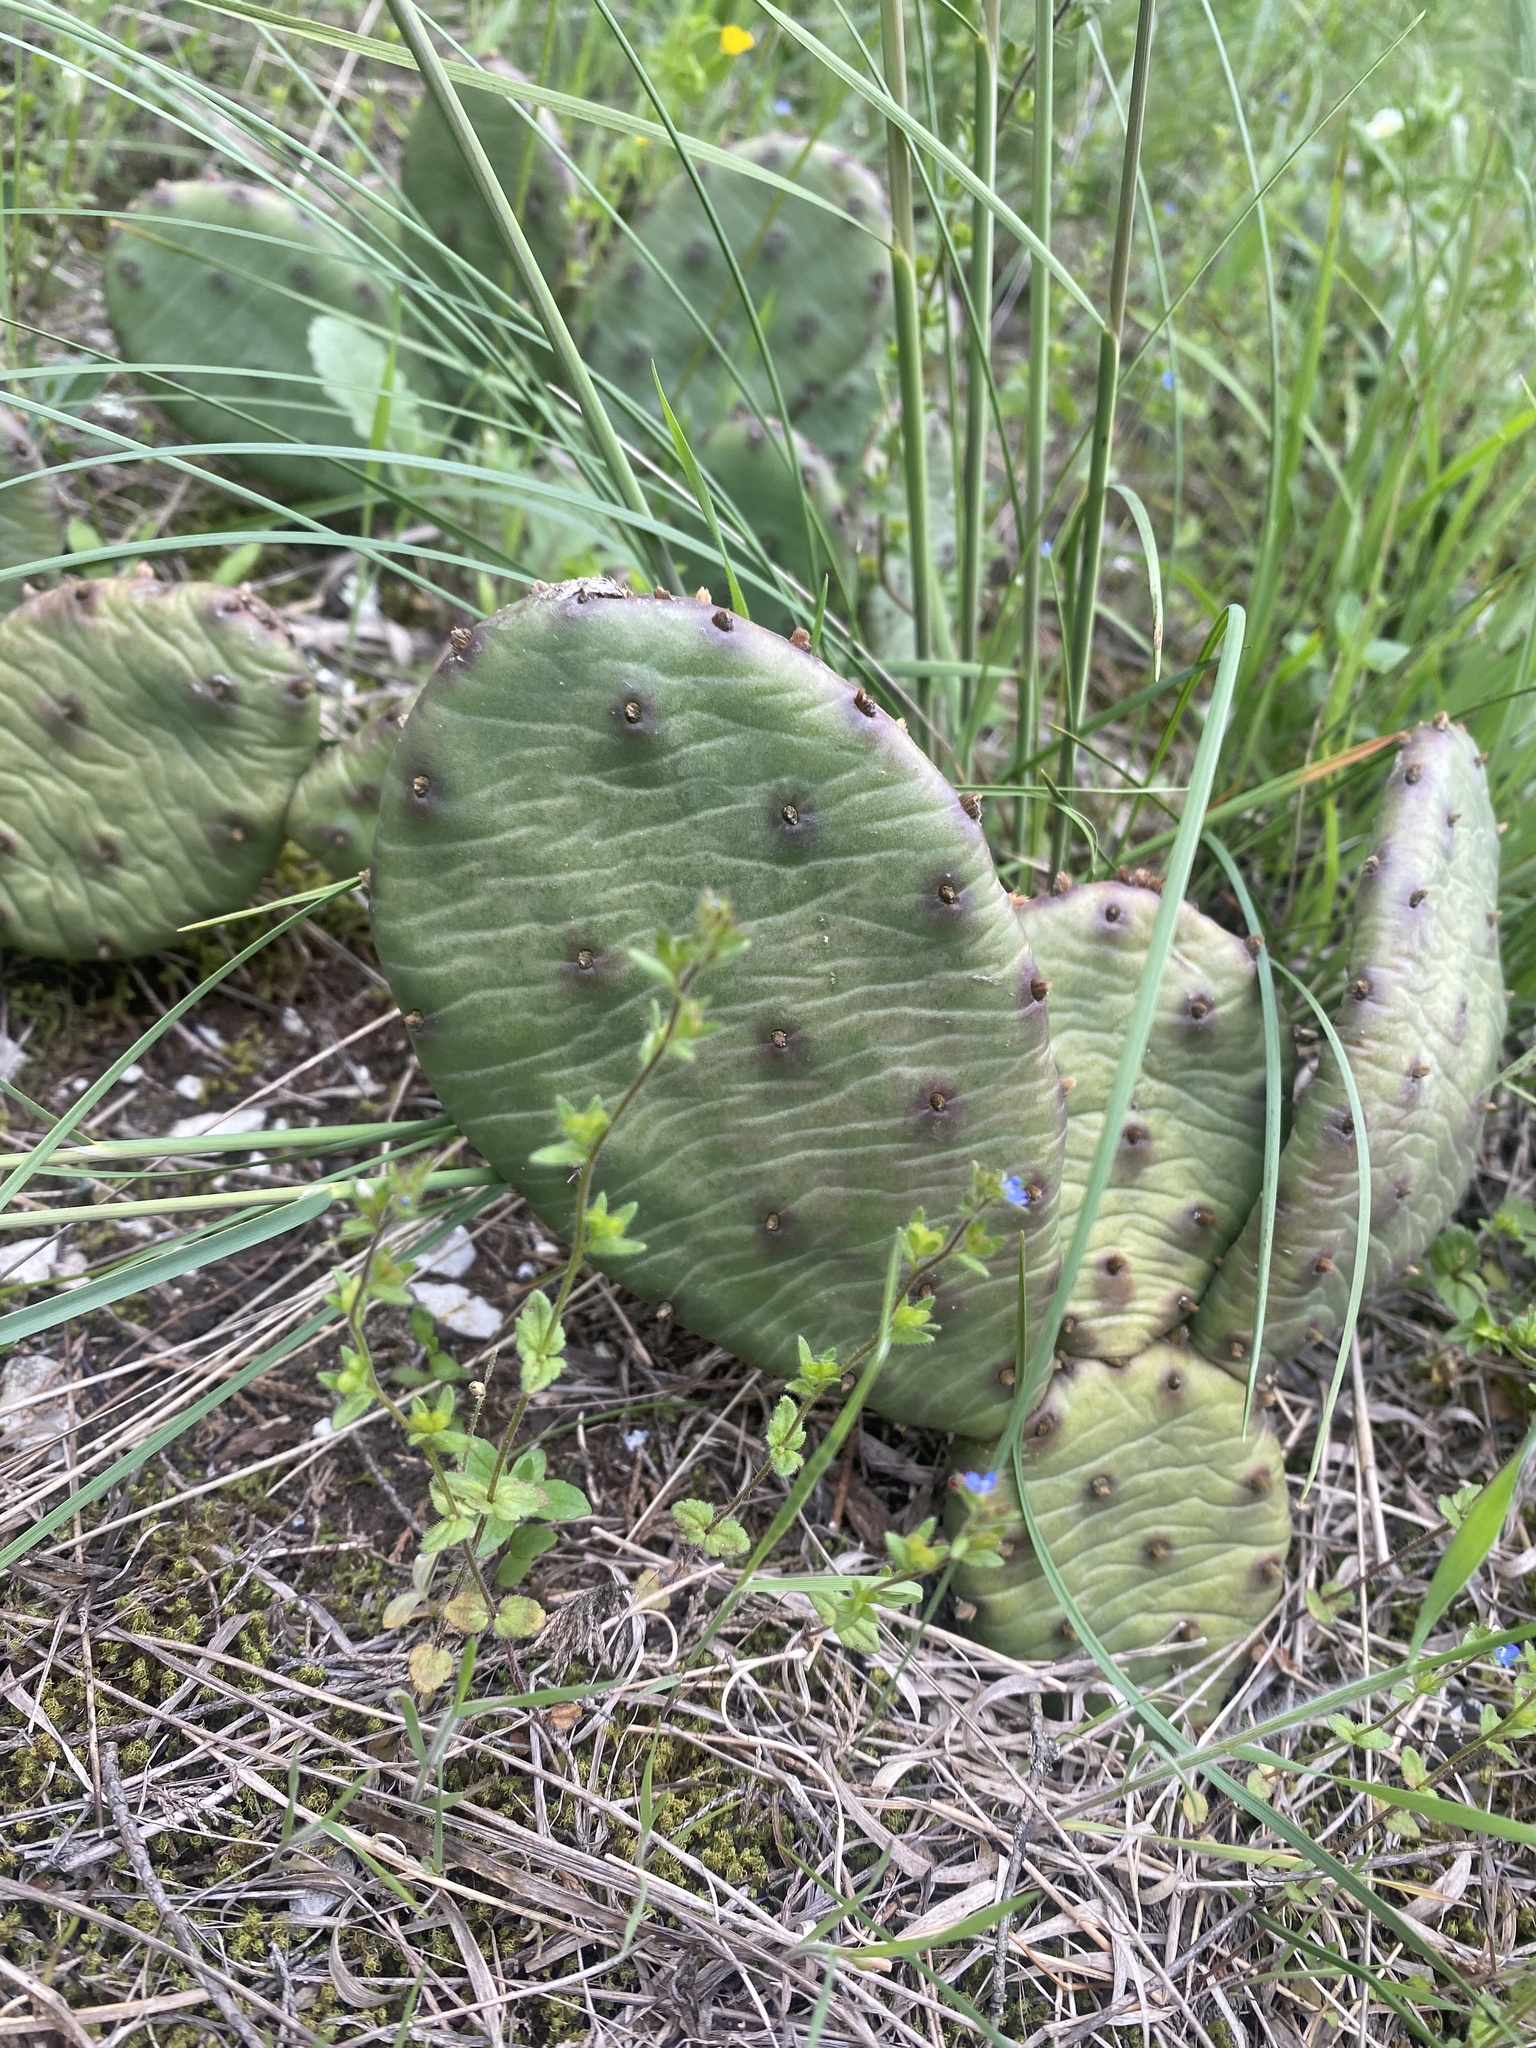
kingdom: Plantae
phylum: Tracheophyta
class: Magnoliopsida
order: Caryophyllales
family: Cactaceae
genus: Opuntia
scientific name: Opuntia humifusa
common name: Eastern prickly-pear
